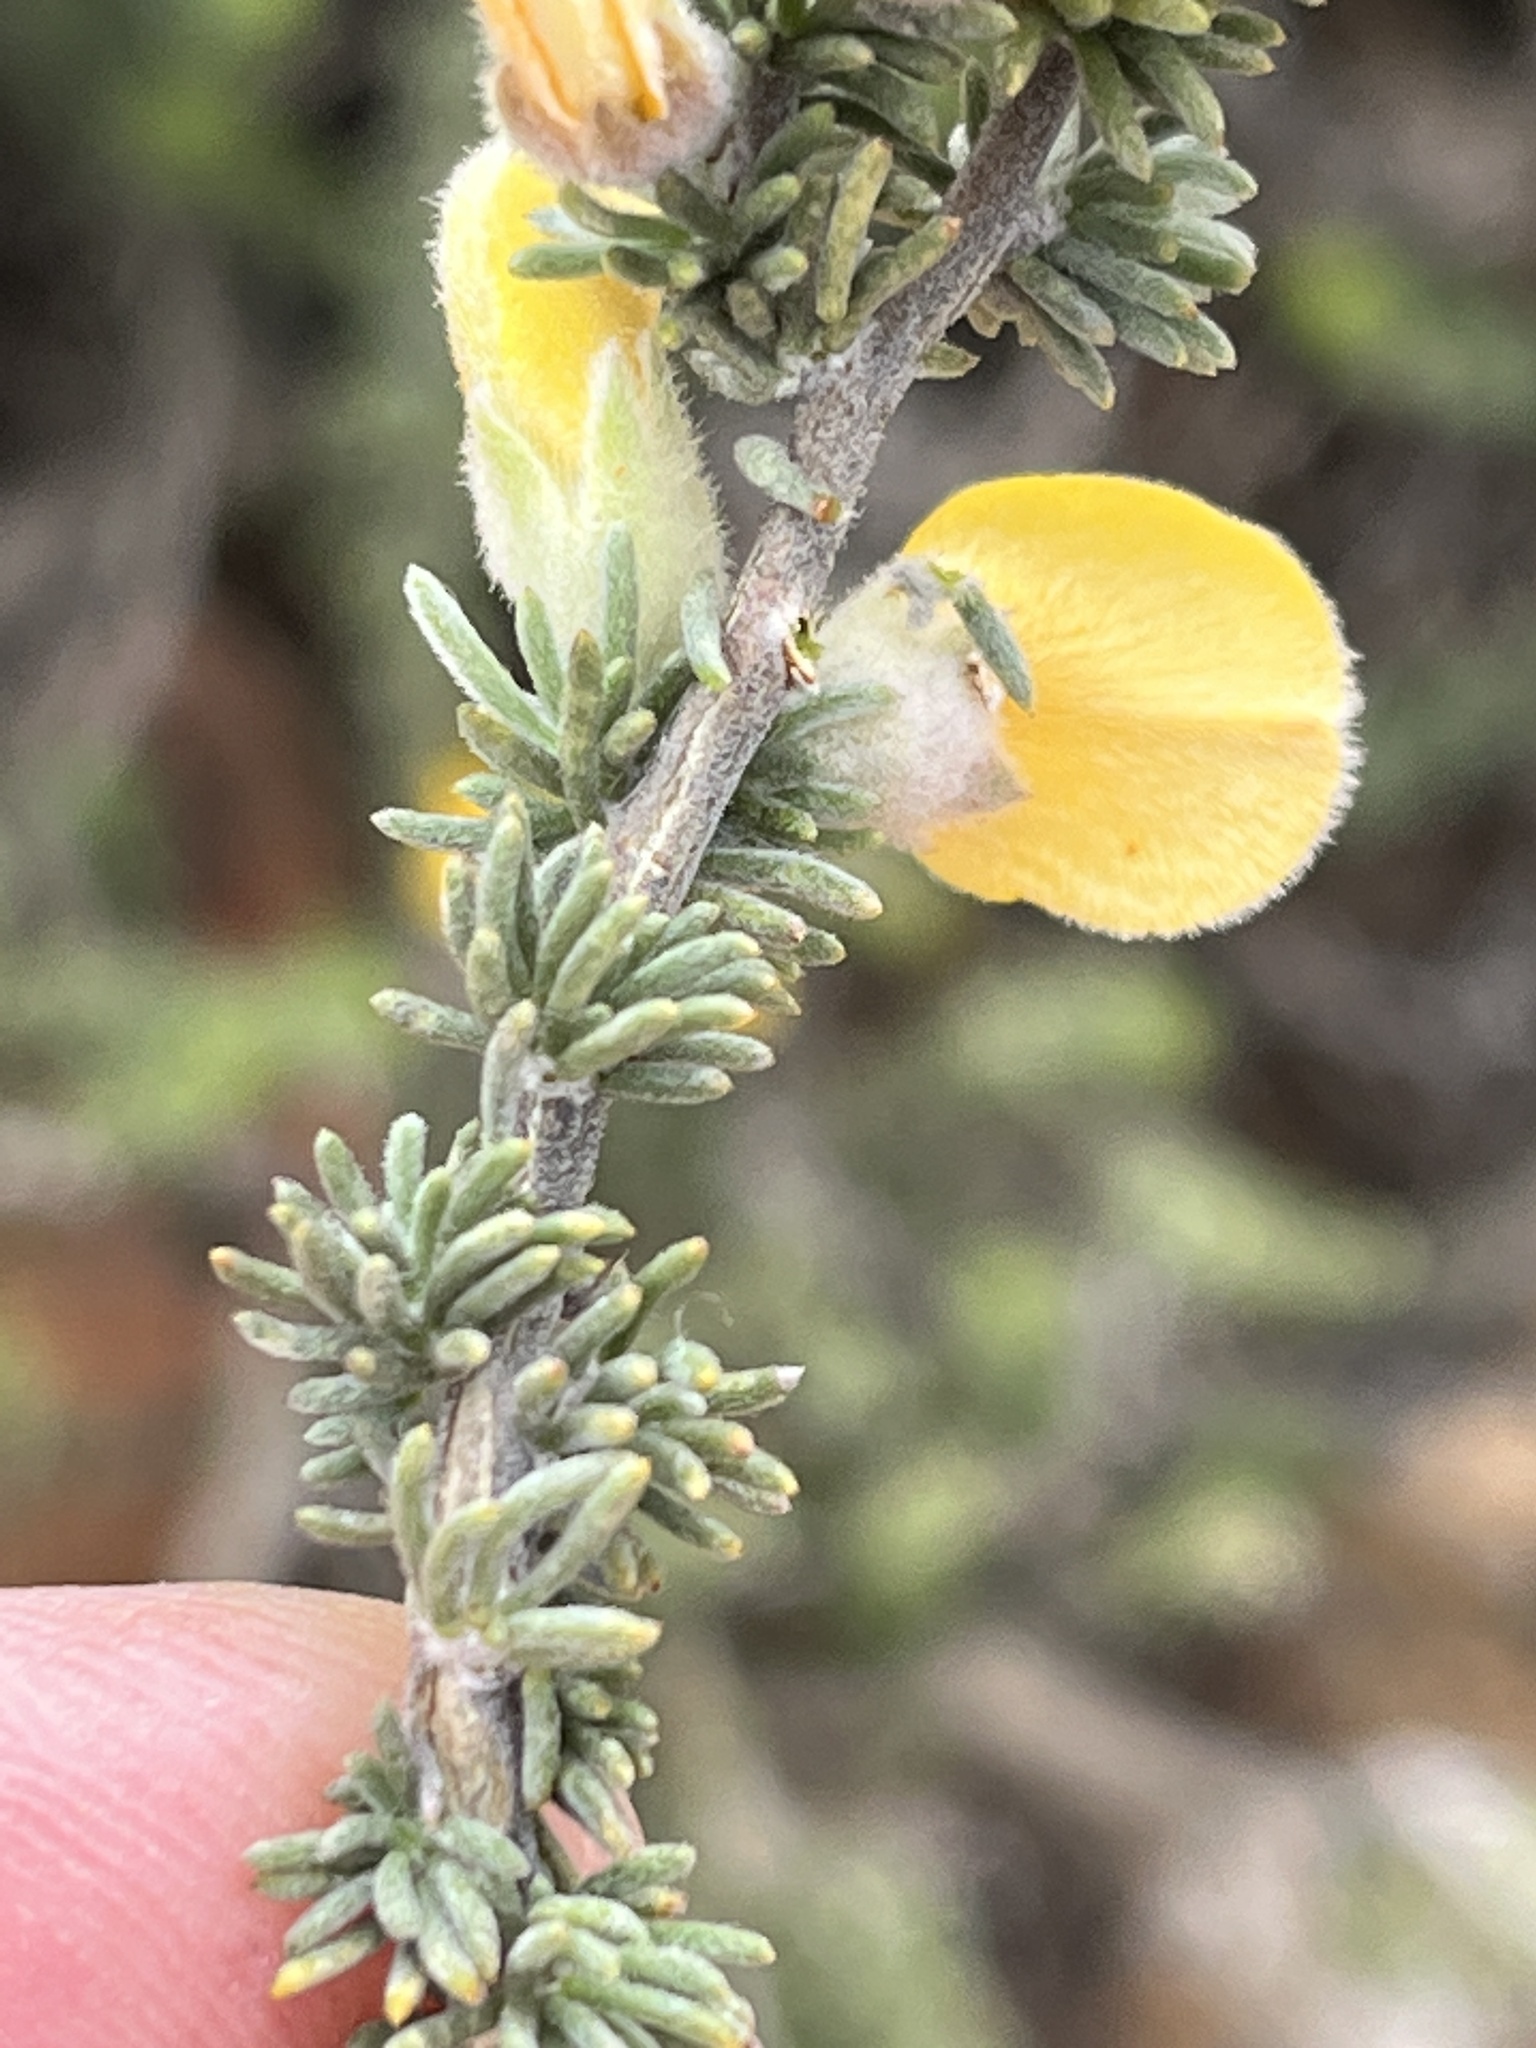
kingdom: Plantae
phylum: Tracheophyta
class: Magnoliopsida
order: Fabales
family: Fabaceae
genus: Aspalathus
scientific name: Aspalathus kougaensis
